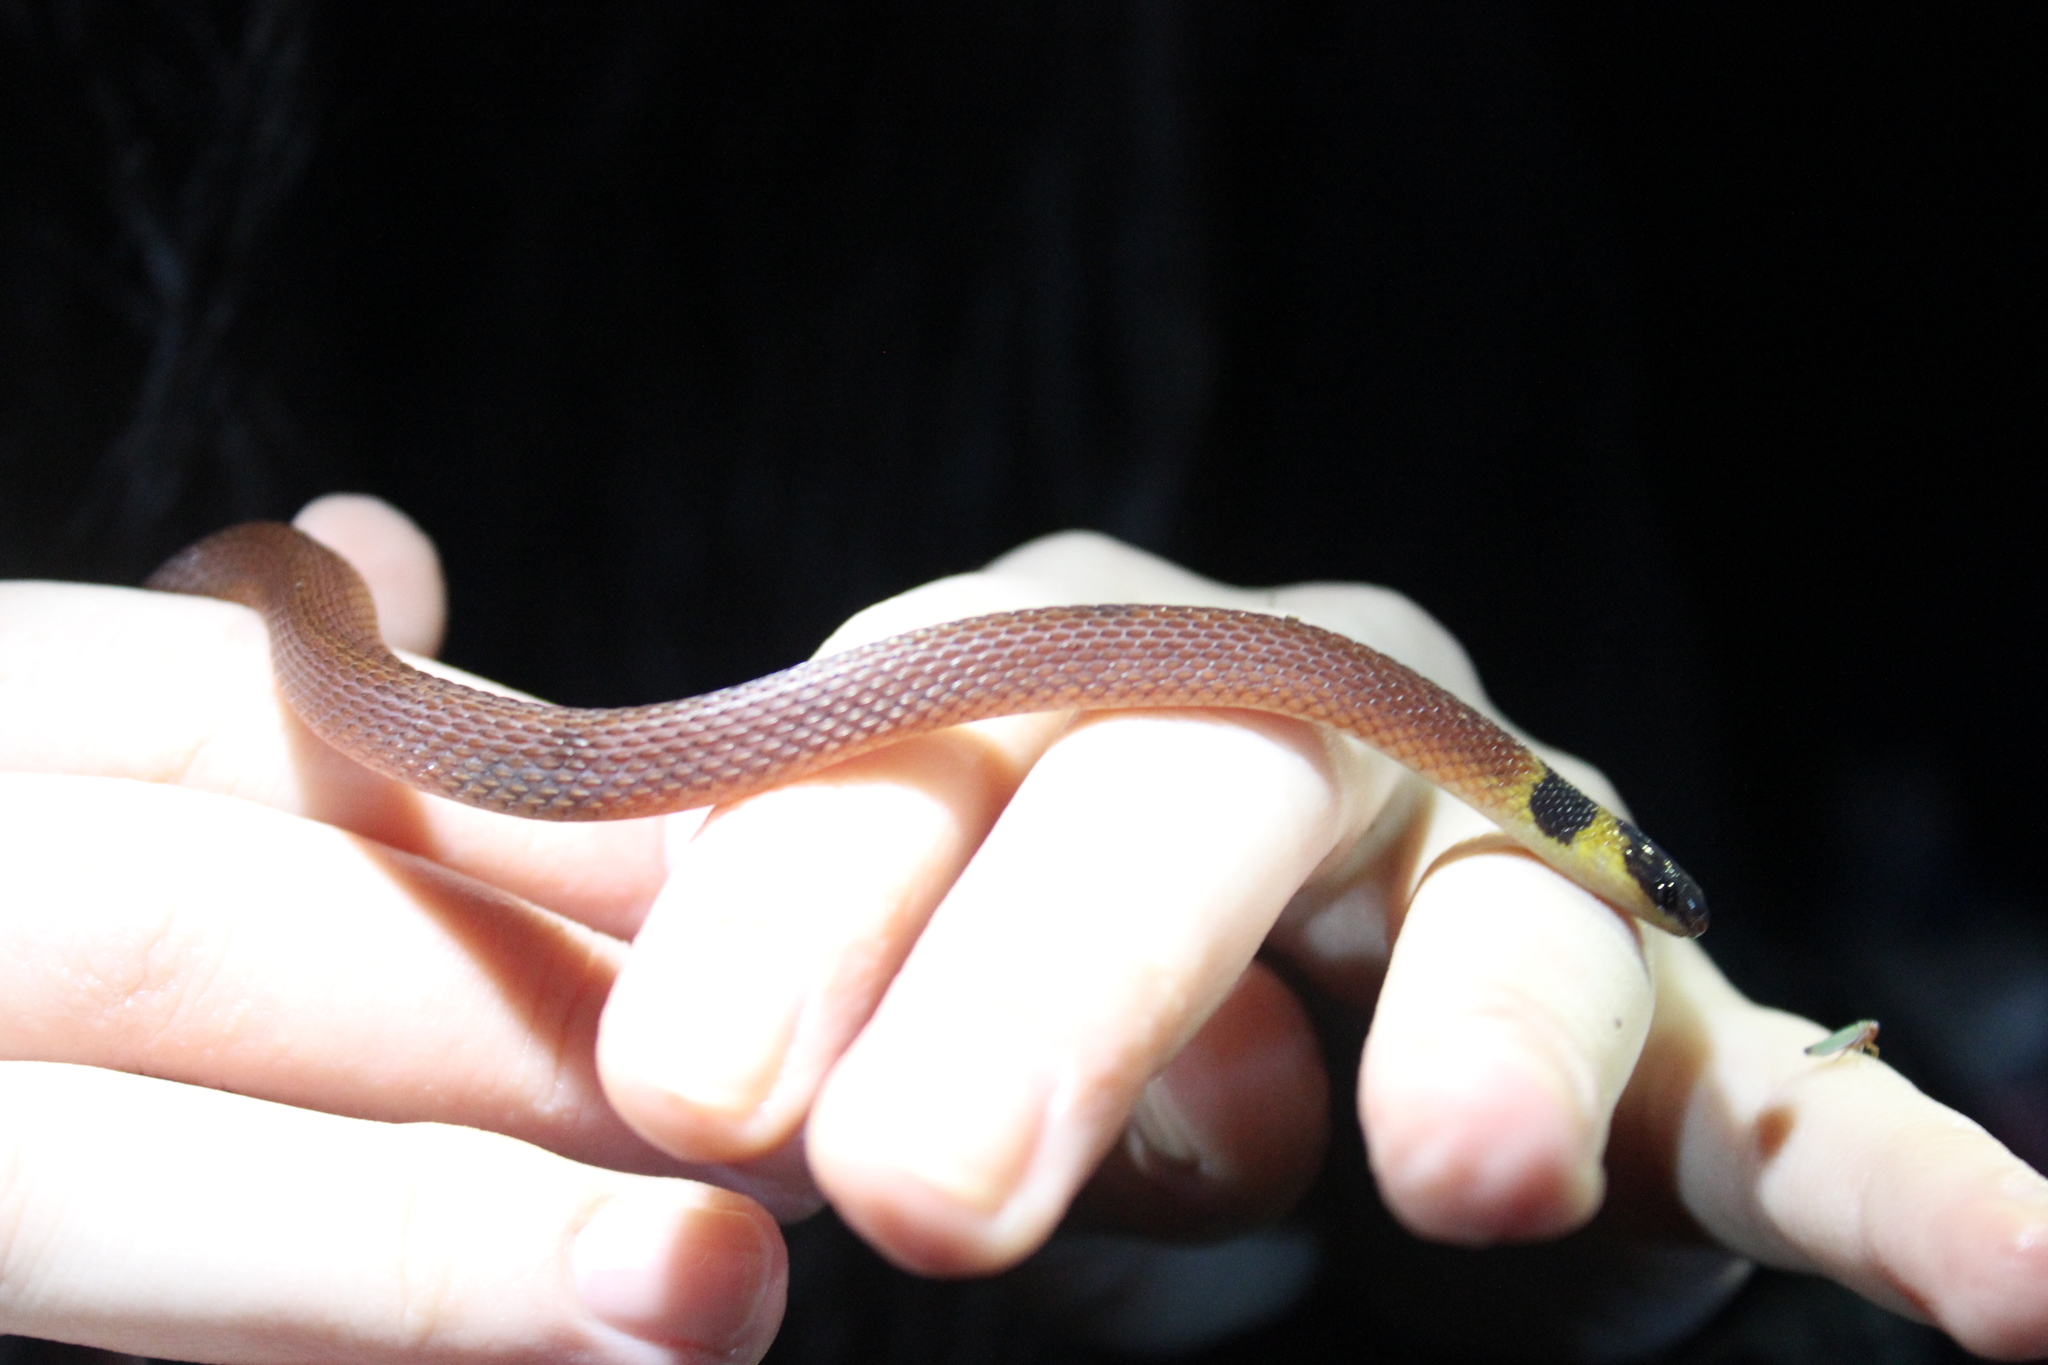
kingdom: Animalia
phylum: Chordata
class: Squamata
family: Colubridae
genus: Ninia
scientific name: Ninia sebae
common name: Redback coffee snake
